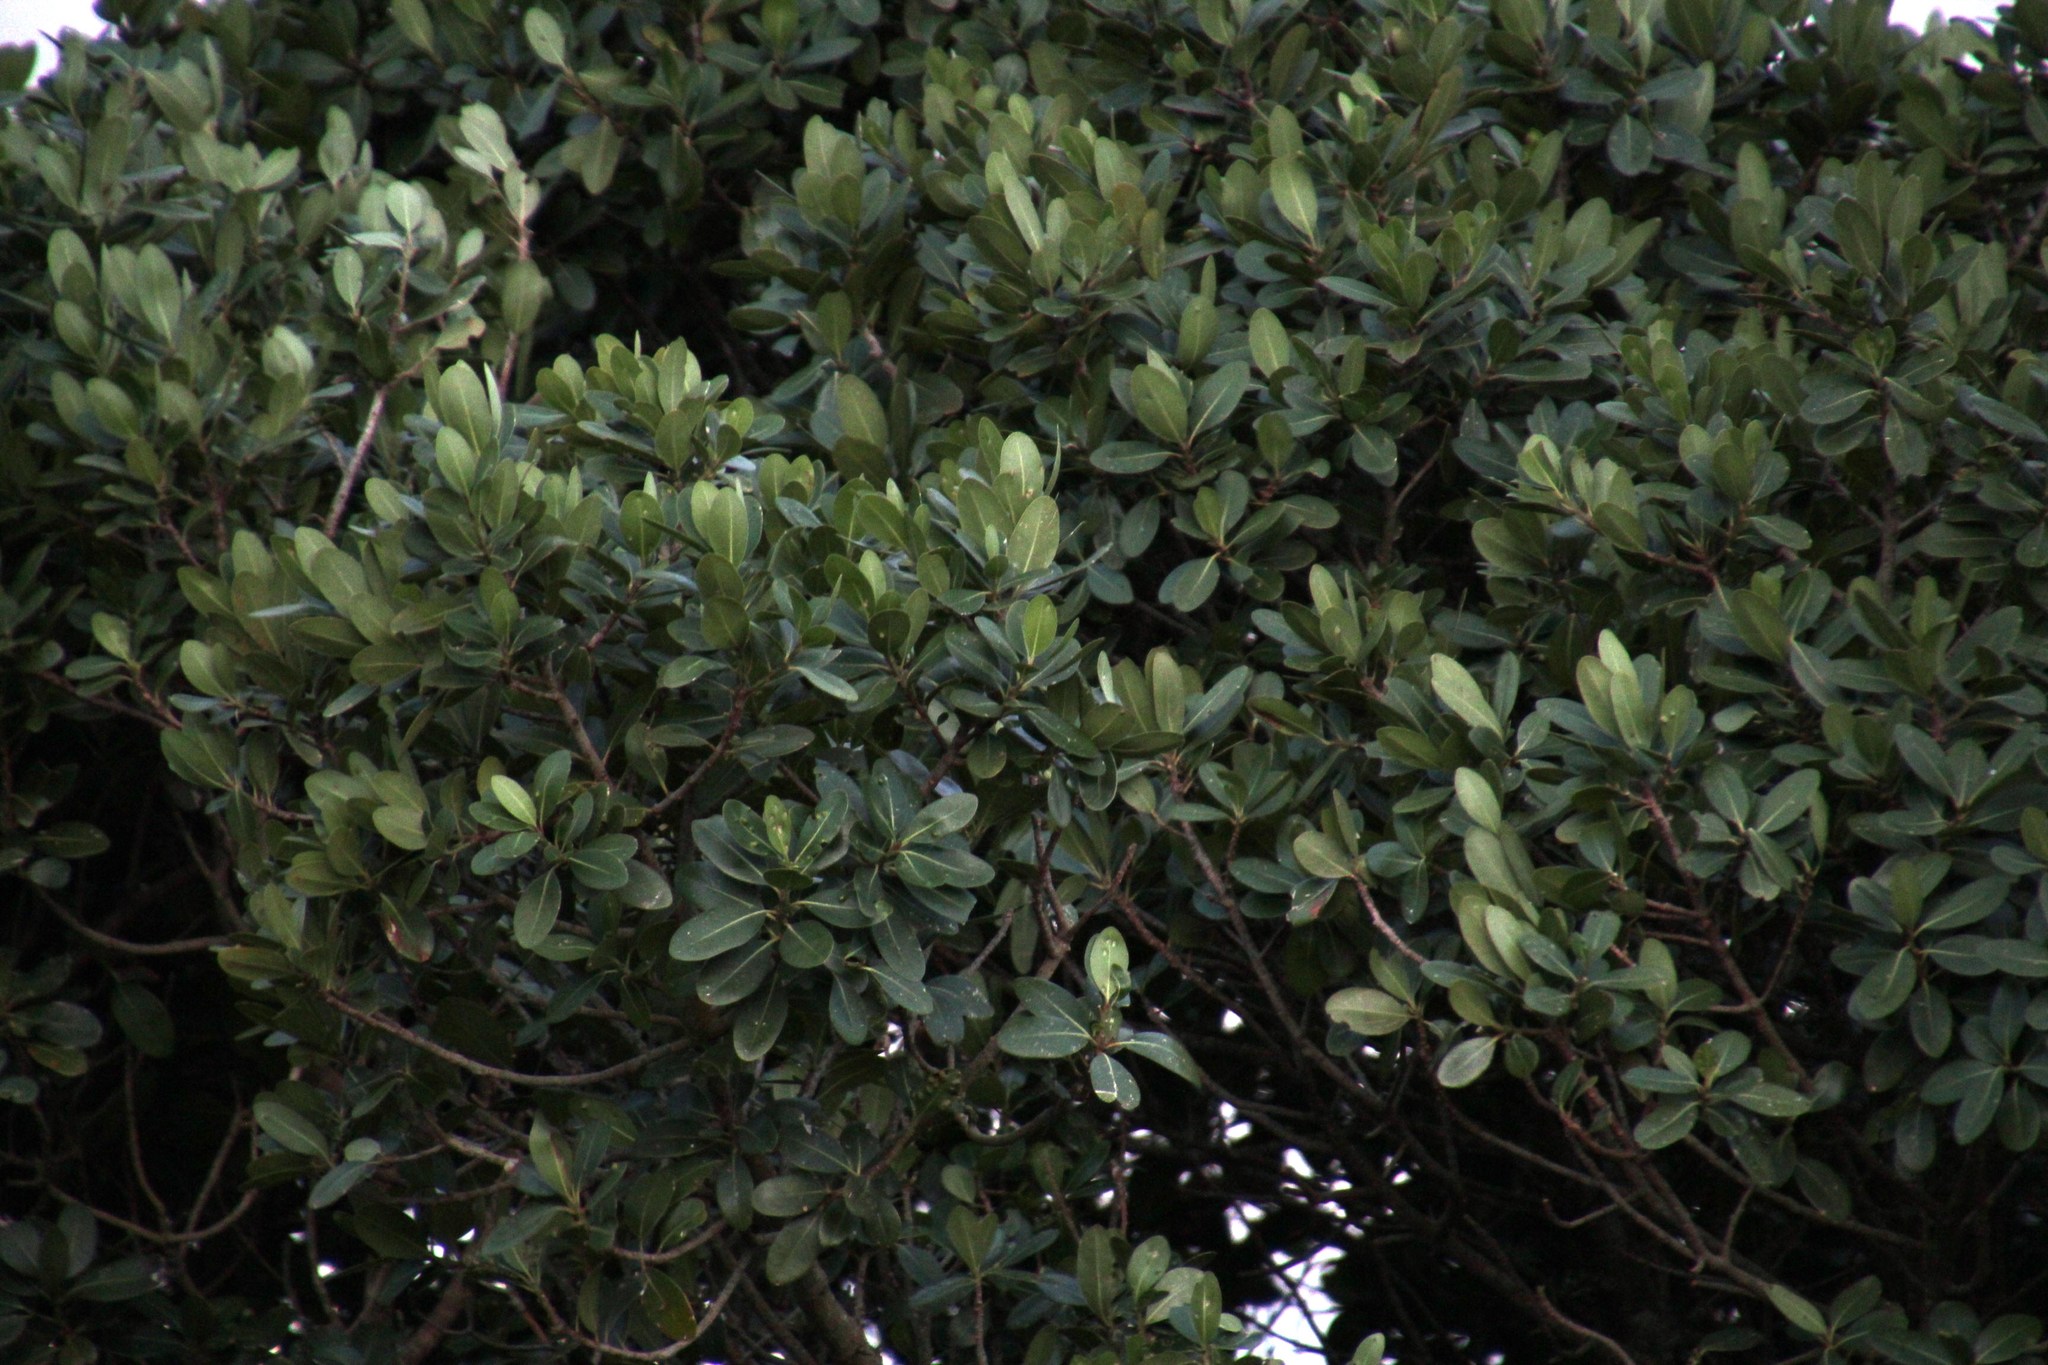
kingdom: Plantae
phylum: Tracheophyta
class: Magnoliopsida
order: Ericales
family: Sapotaceae
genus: Sideroxylon
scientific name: Sideroxylon inerme
